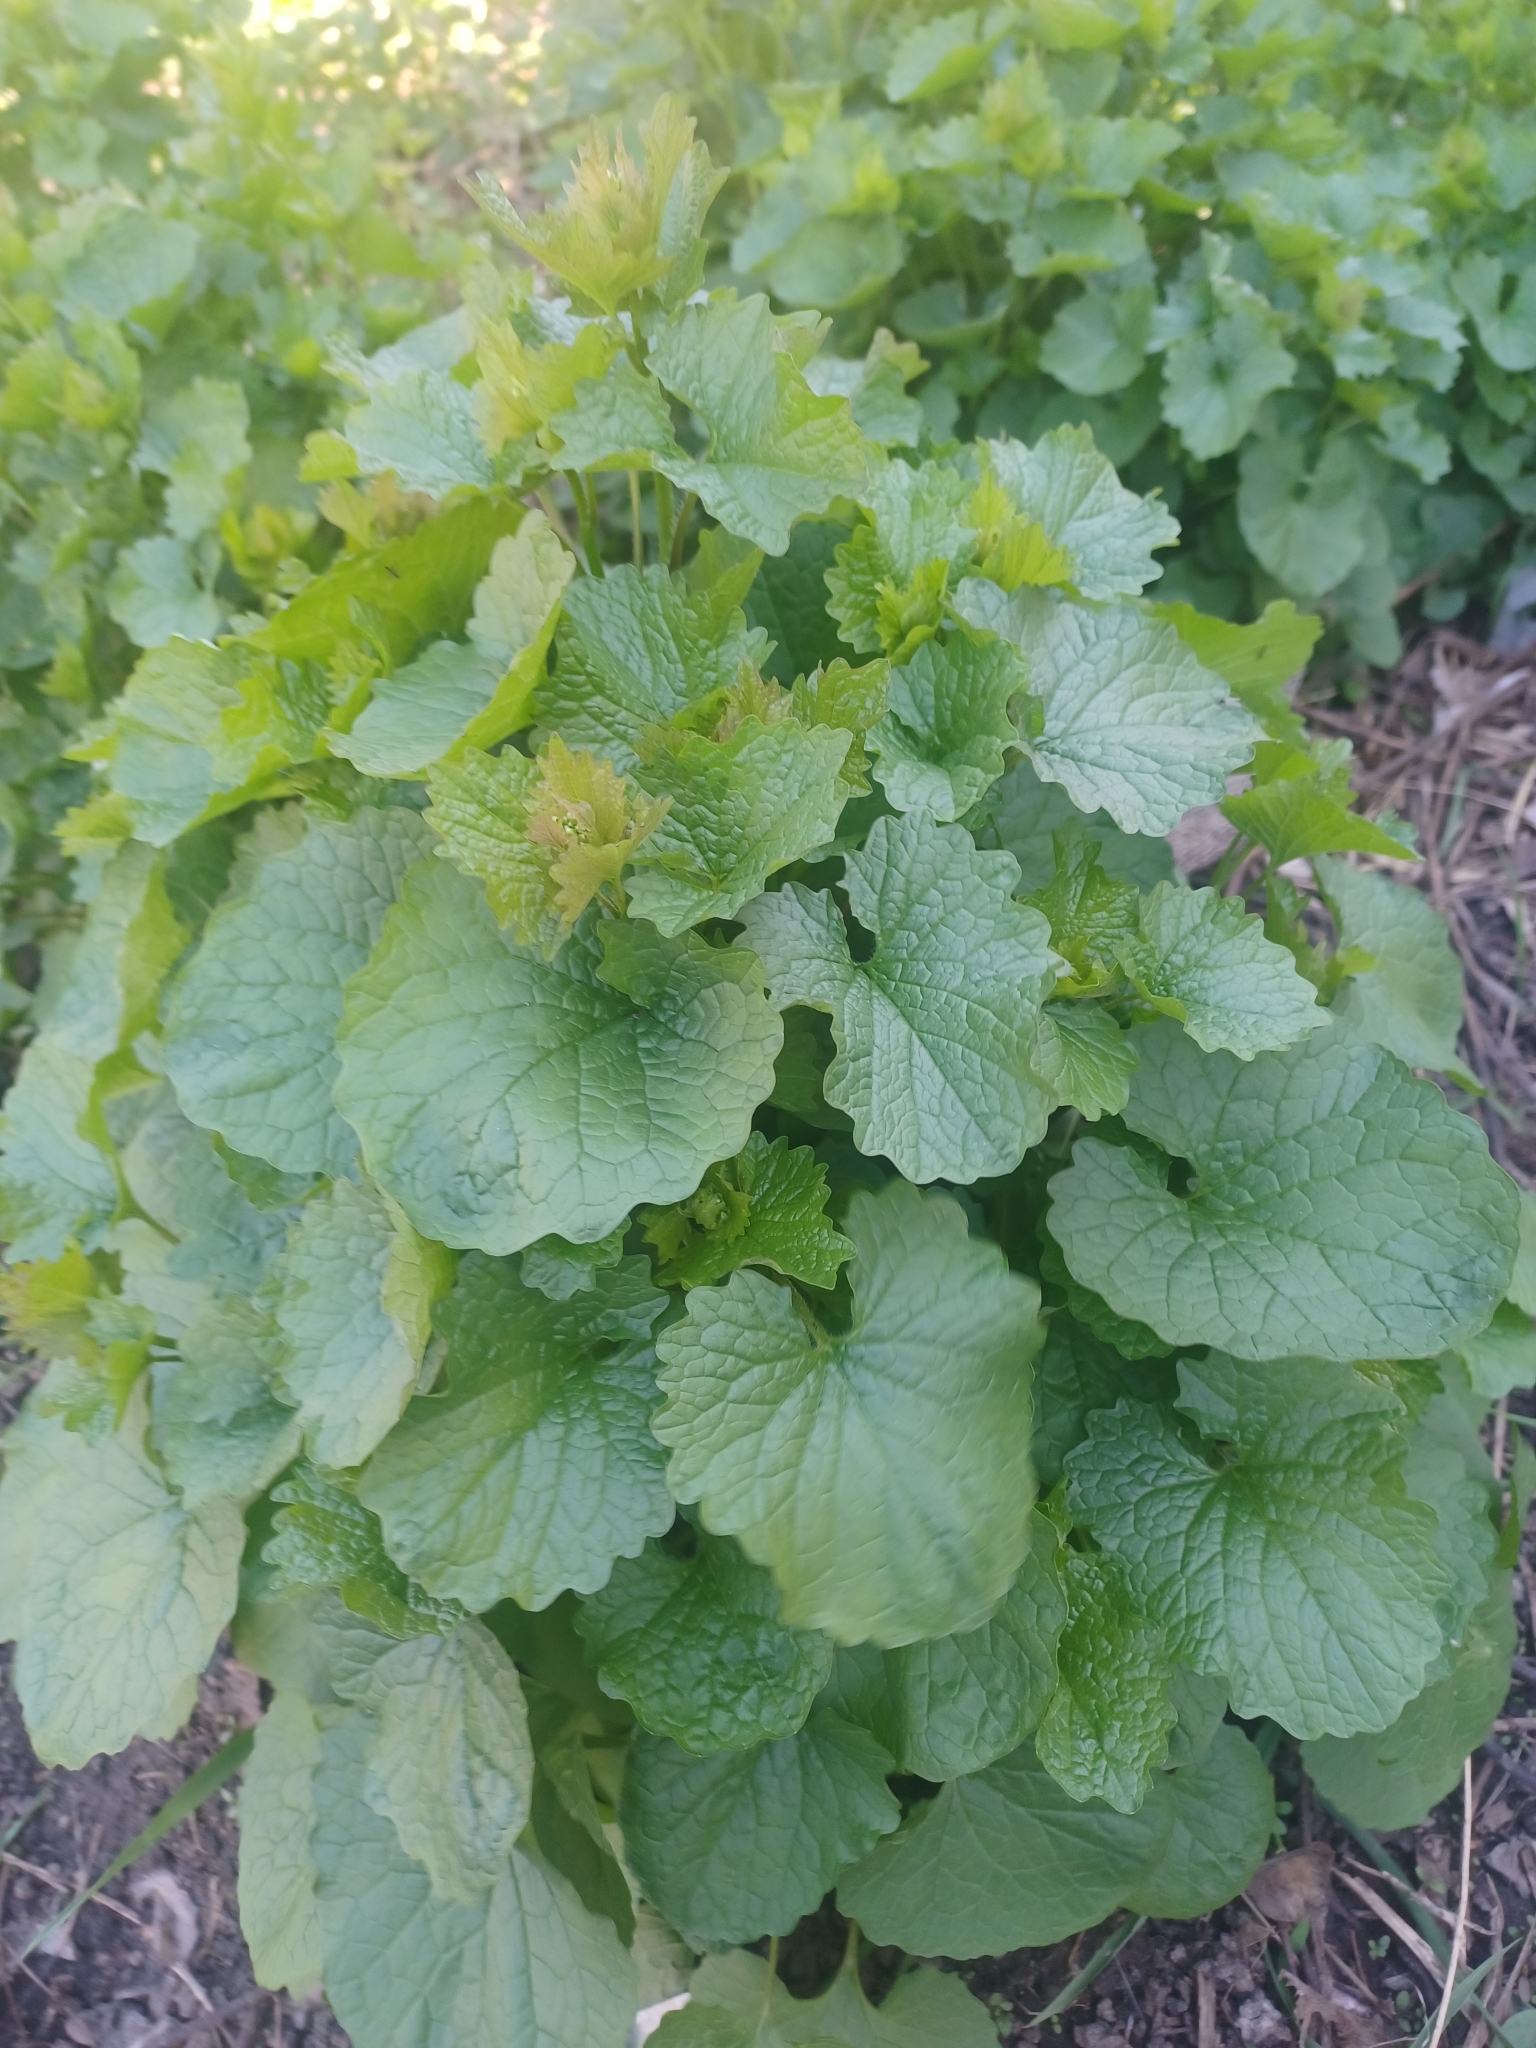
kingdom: Plantae
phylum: Tracheophyta
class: Magnoliopsida
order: Brassicales
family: Brassicaceae
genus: Alliaria
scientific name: Alliaria petiolata
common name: Garlic mustard
